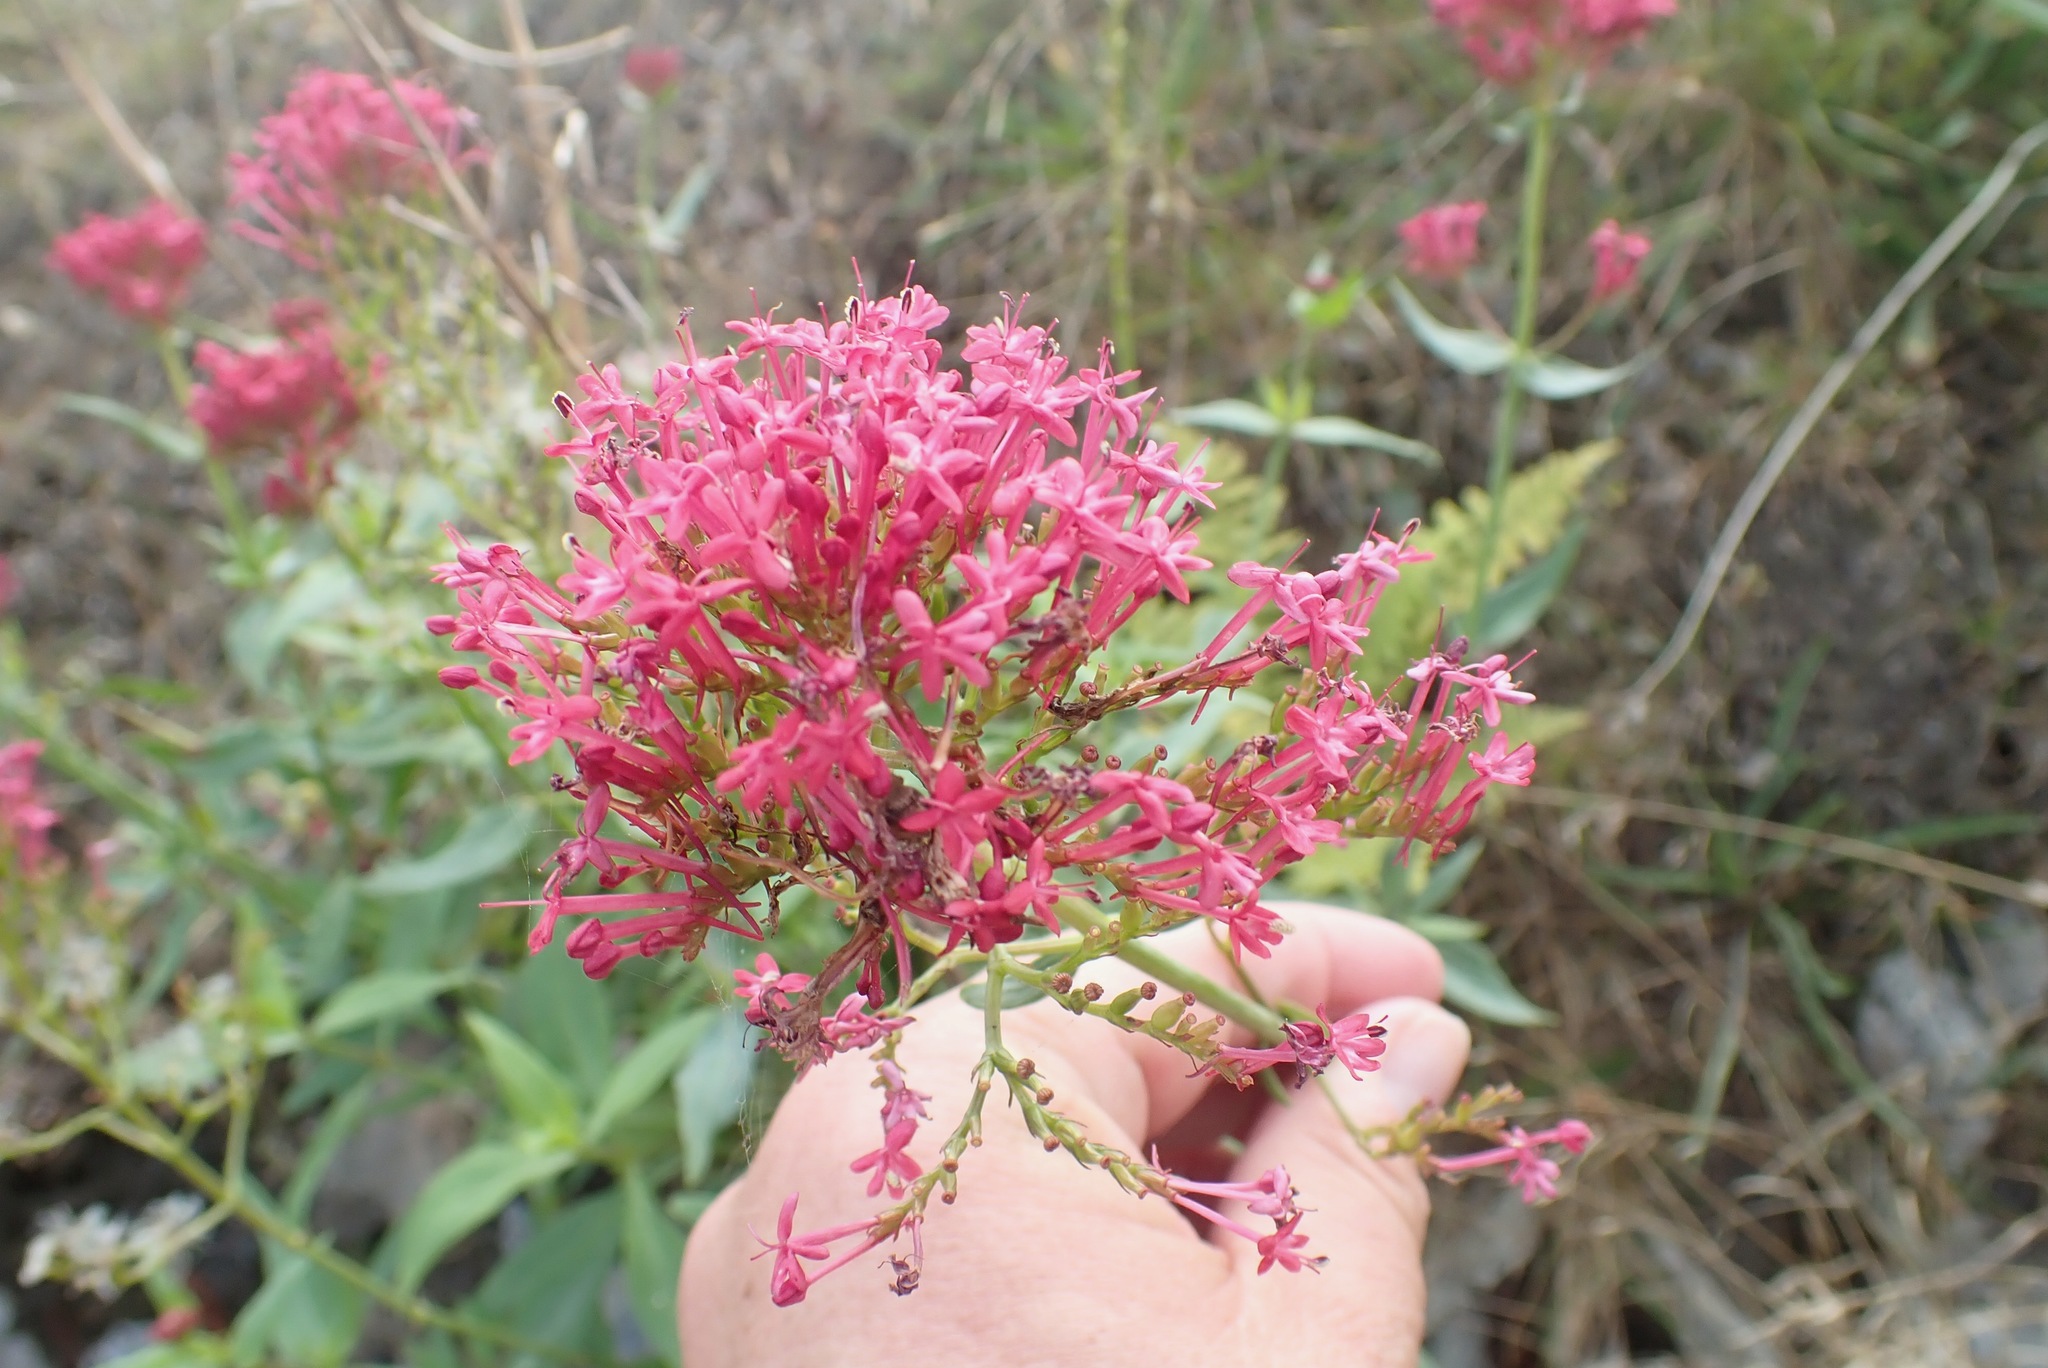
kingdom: Plantae
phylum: Tracheophyta
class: Magnoliopsida
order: Dipsacales
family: Caprifoliaceae
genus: Centranthus
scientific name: Centranthus ruber
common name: Red valerian
